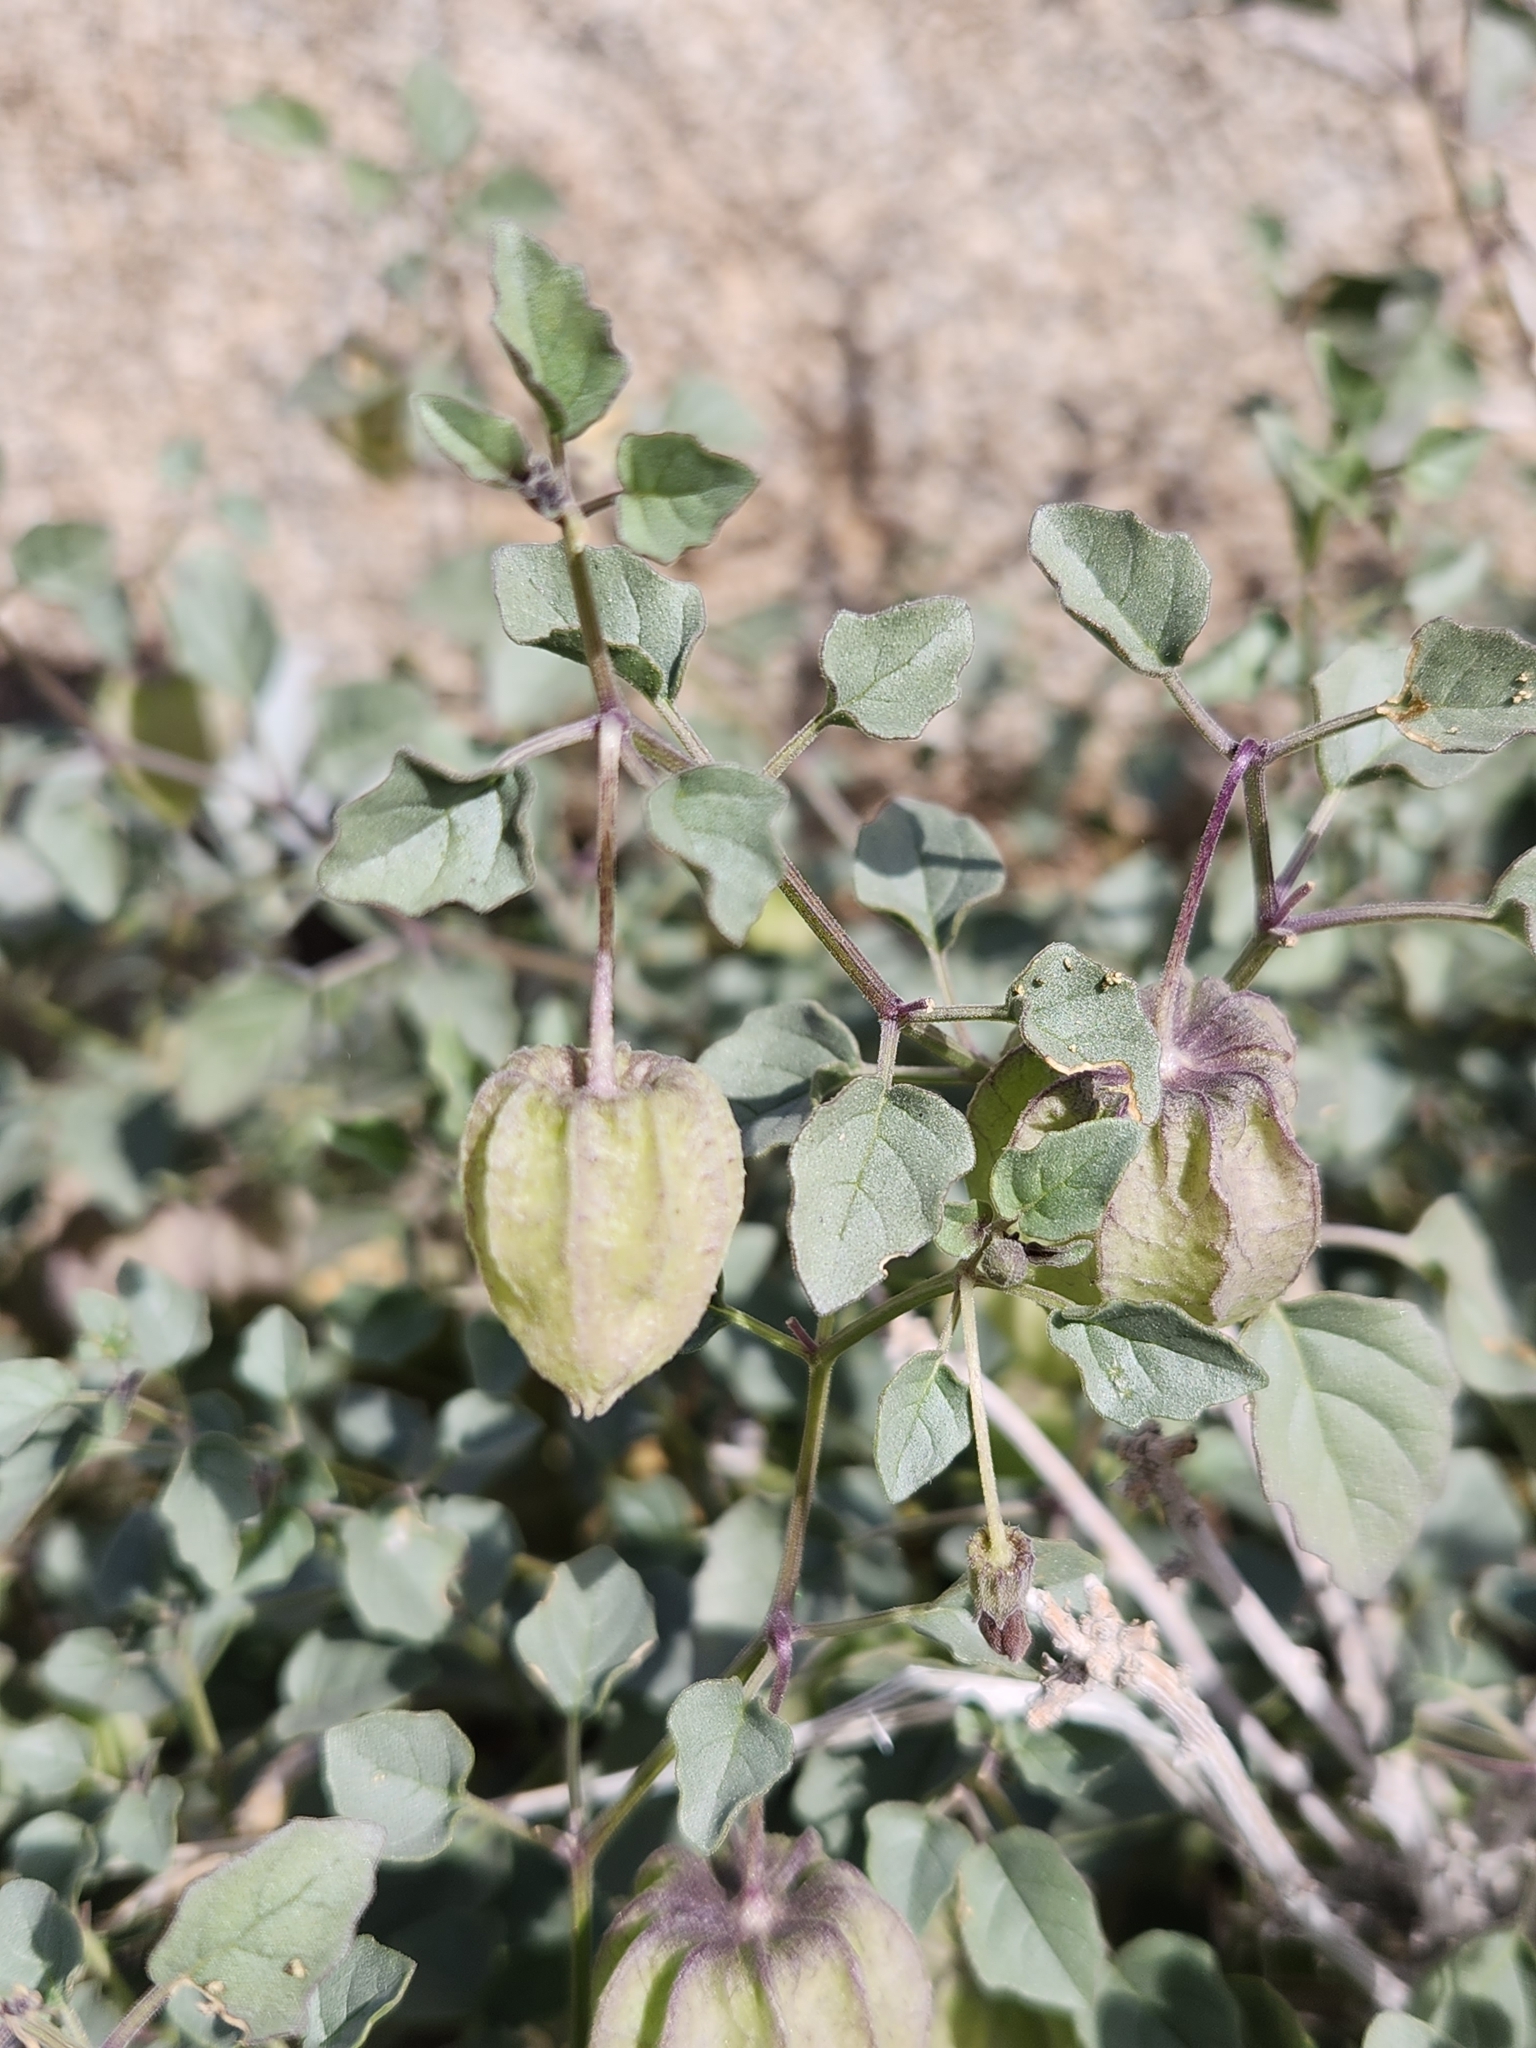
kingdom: Plantae
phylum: Tracheophyta
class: Magnoliopsida
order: Solanales
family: Solanaceae
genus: Physalis
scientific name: Physalis crassifolia
